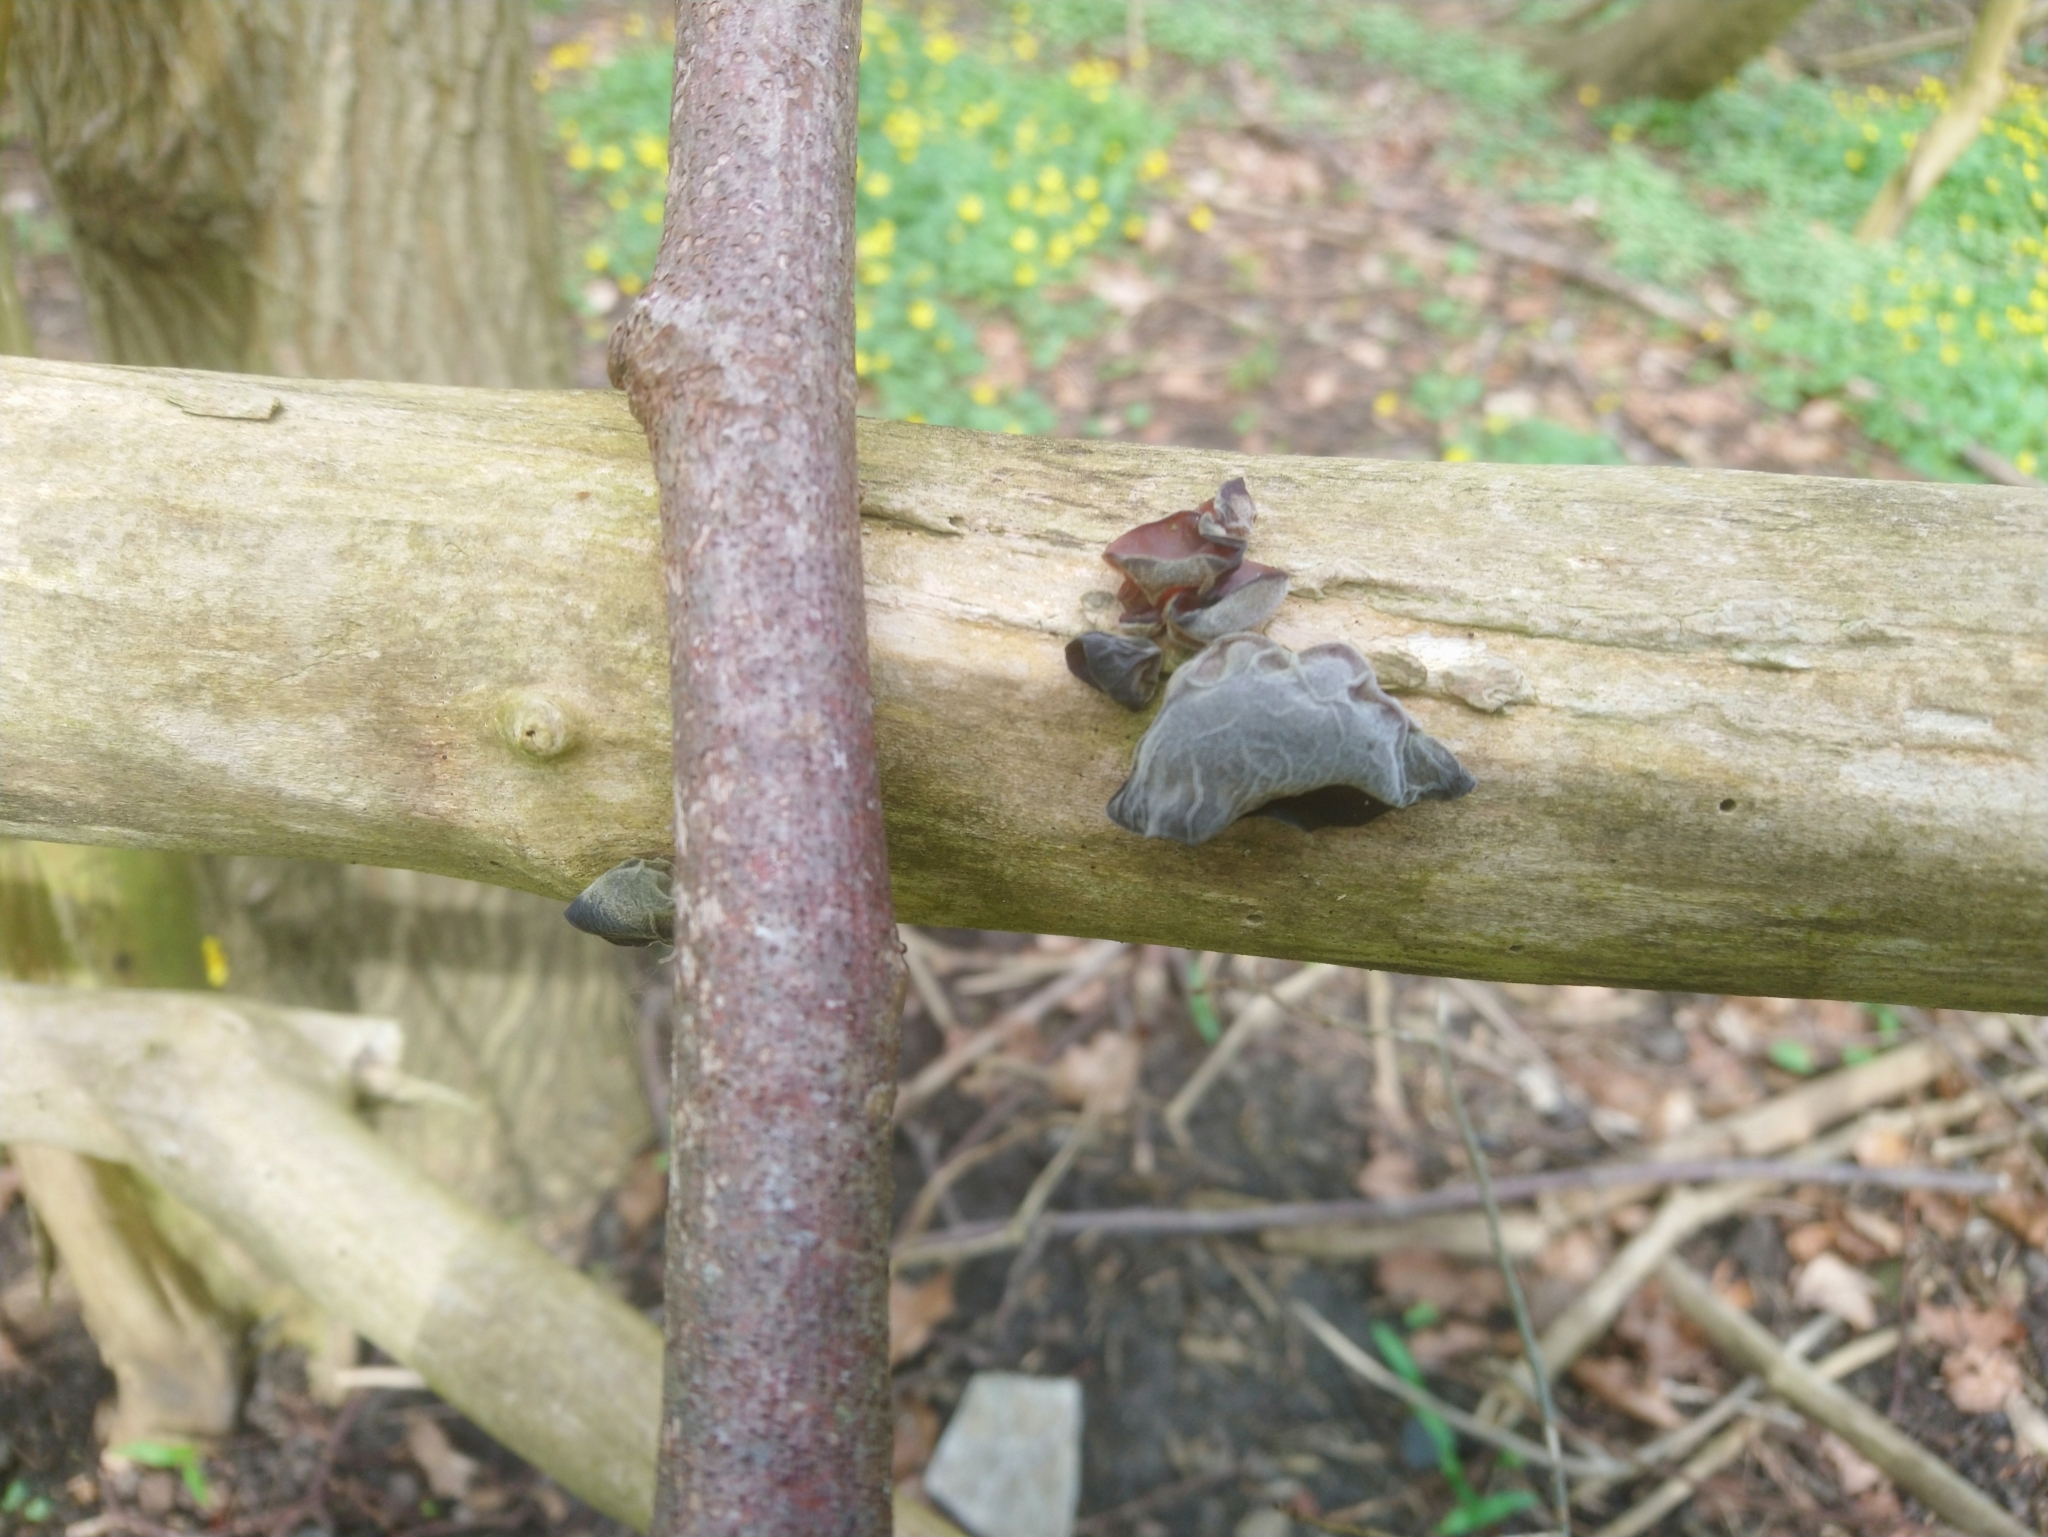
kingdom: Fungi
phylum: Basidiomycota
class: Agaricomycetes
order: Auriculariales
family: Auriculariaceae
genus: Auricularia
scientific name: Auricularia auricula-judae
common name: Jelly ear
